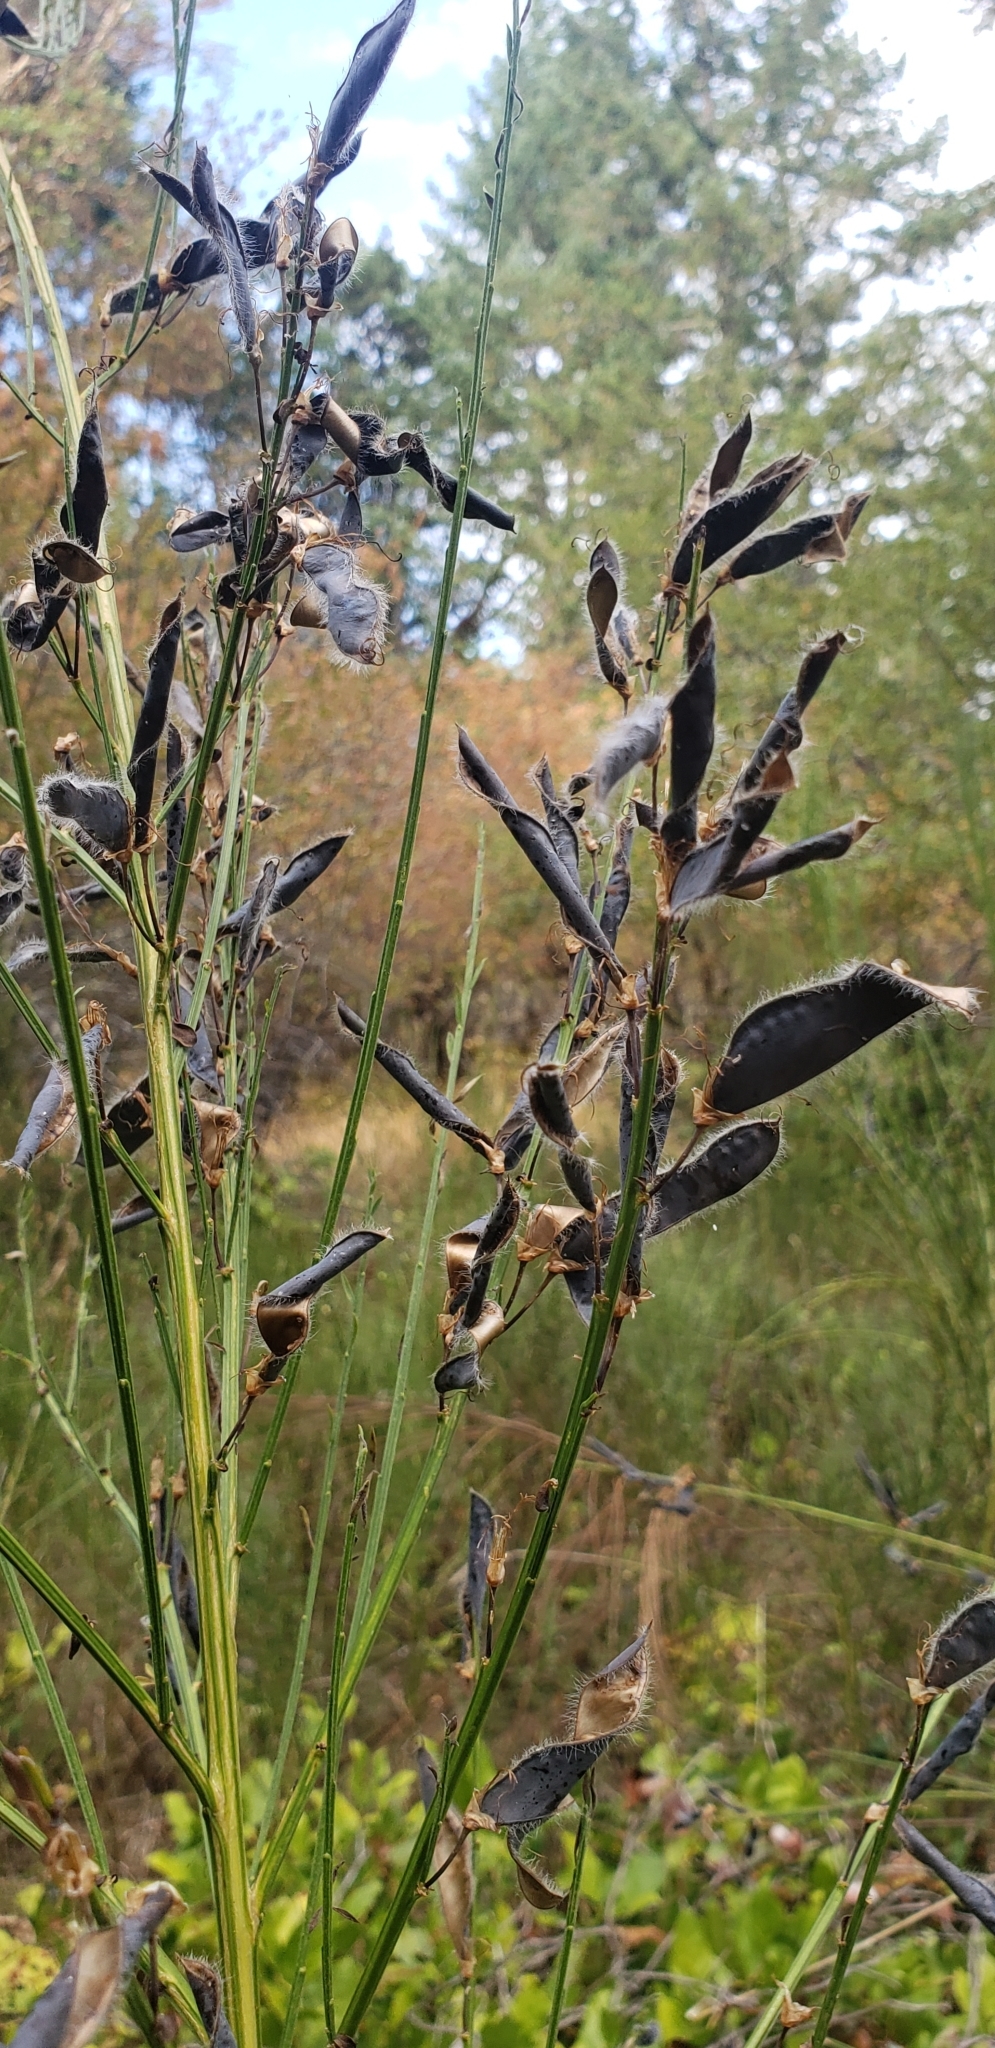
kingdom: Plantae
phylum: Tracheophyta
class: Magnoliopsida
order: Fabales
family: Fabaceae
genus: Cytisus
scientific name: Cytisus scoparius
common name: Scotch broom
